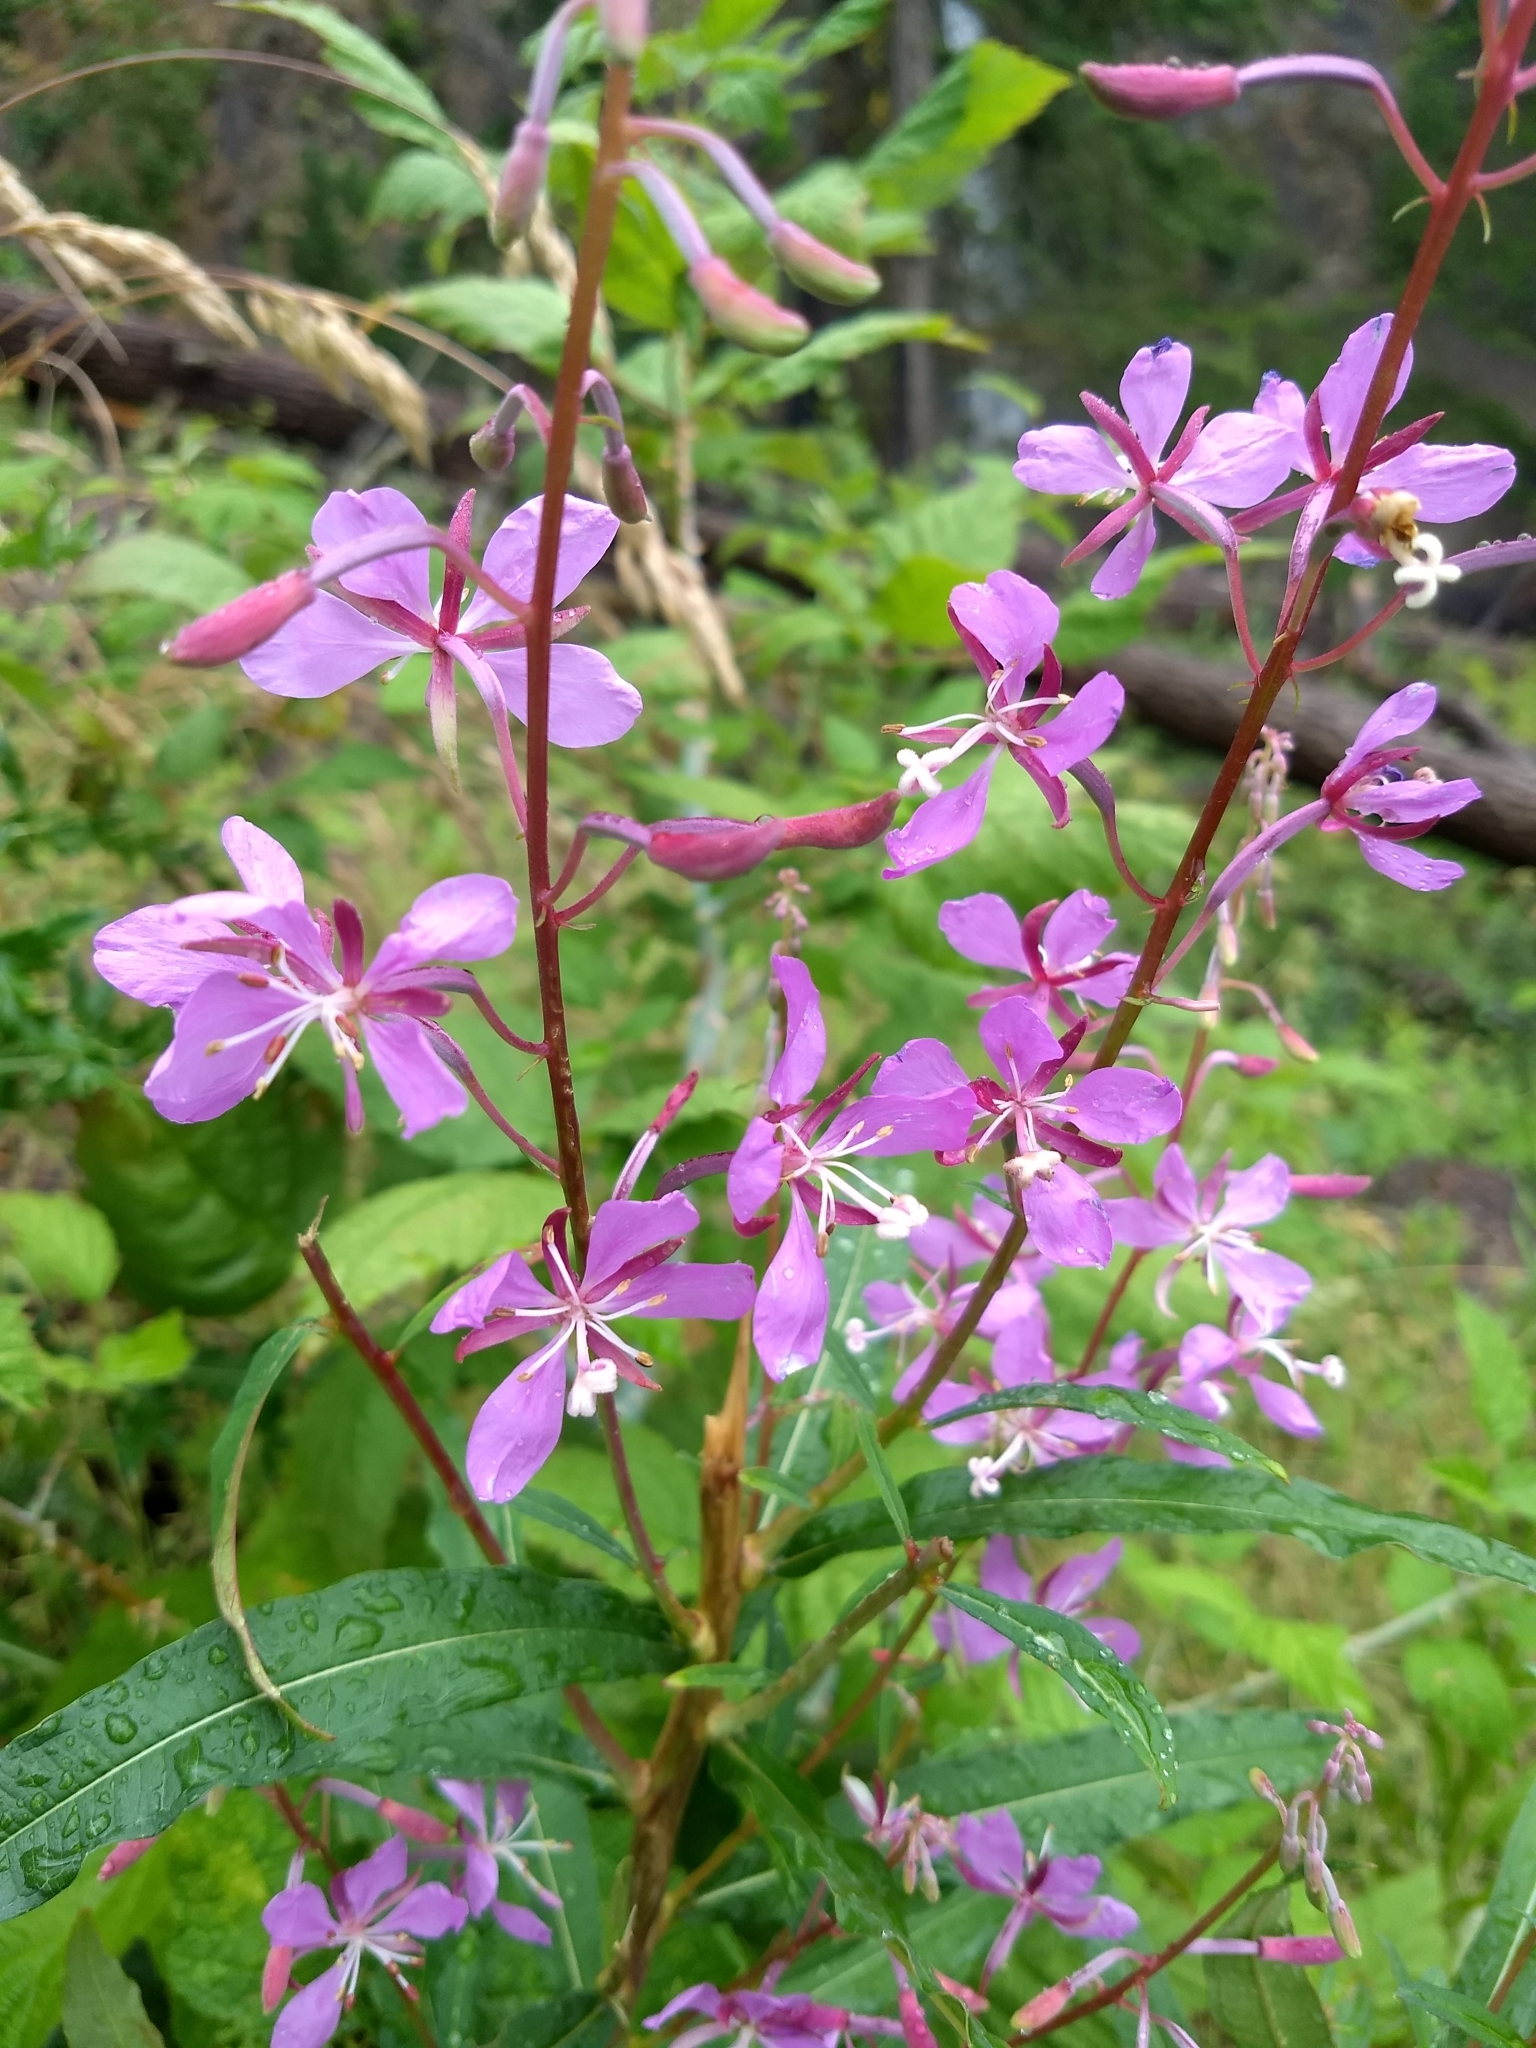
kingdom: Plantae
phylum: Tracheophyta
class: Magnoliopsida
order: Myrtales
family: Onagraceae
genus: Chamaenerion
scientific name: Chamaenerion angustifolium
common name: Fireweed
